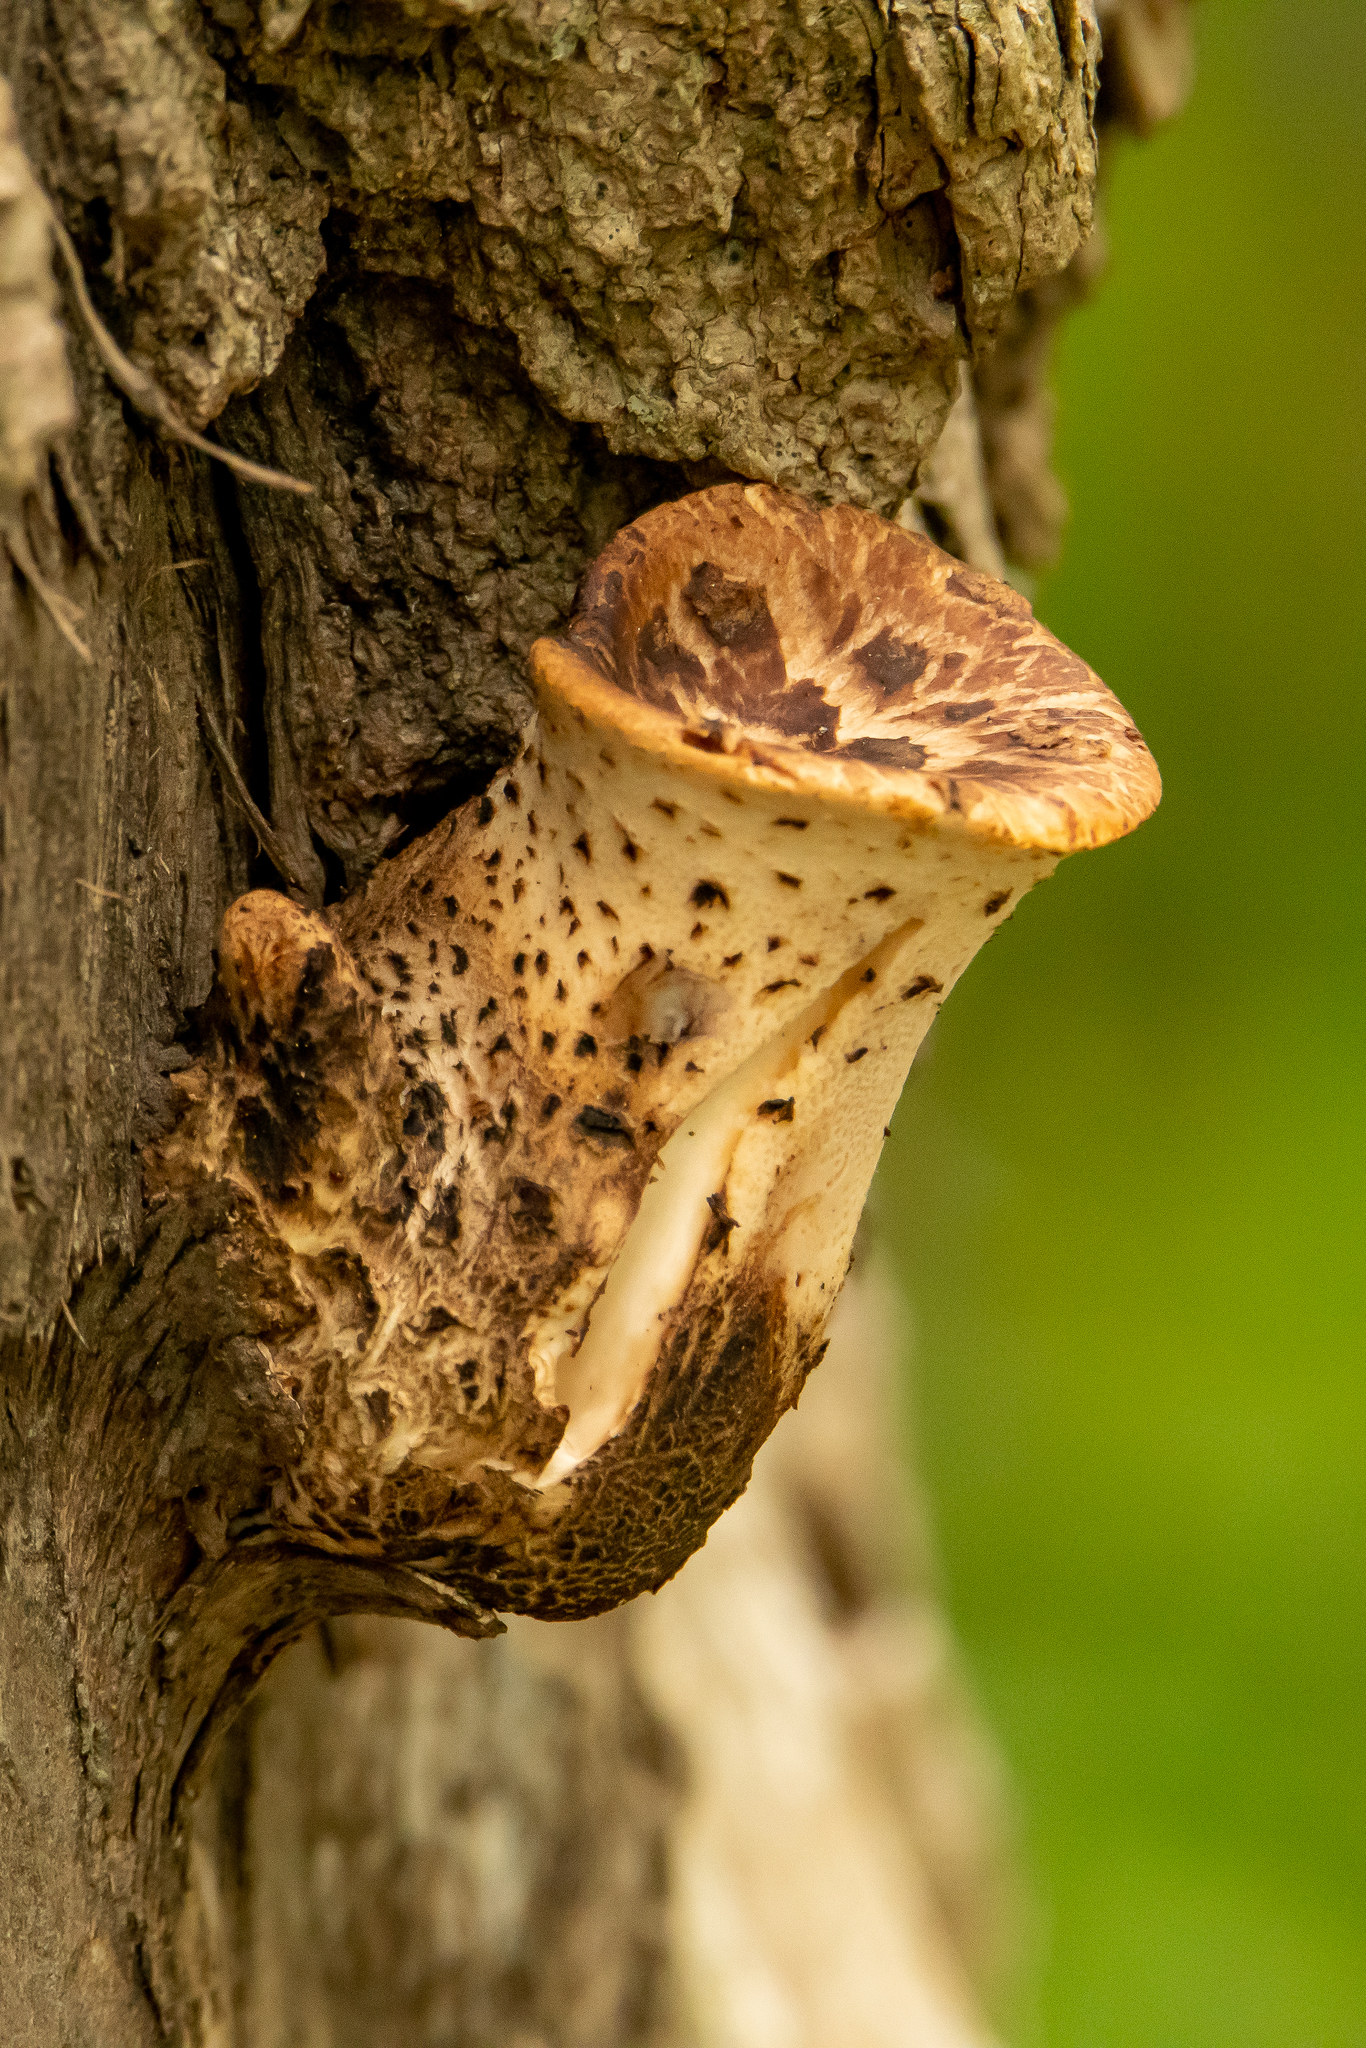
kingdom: Fungi
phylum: Basidiomycota
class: Agaricomycetes
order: Polyporales
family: Polyporaceae
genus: Cerioporus
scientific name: Cerioporus squamosus
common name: Dryad's saddle
